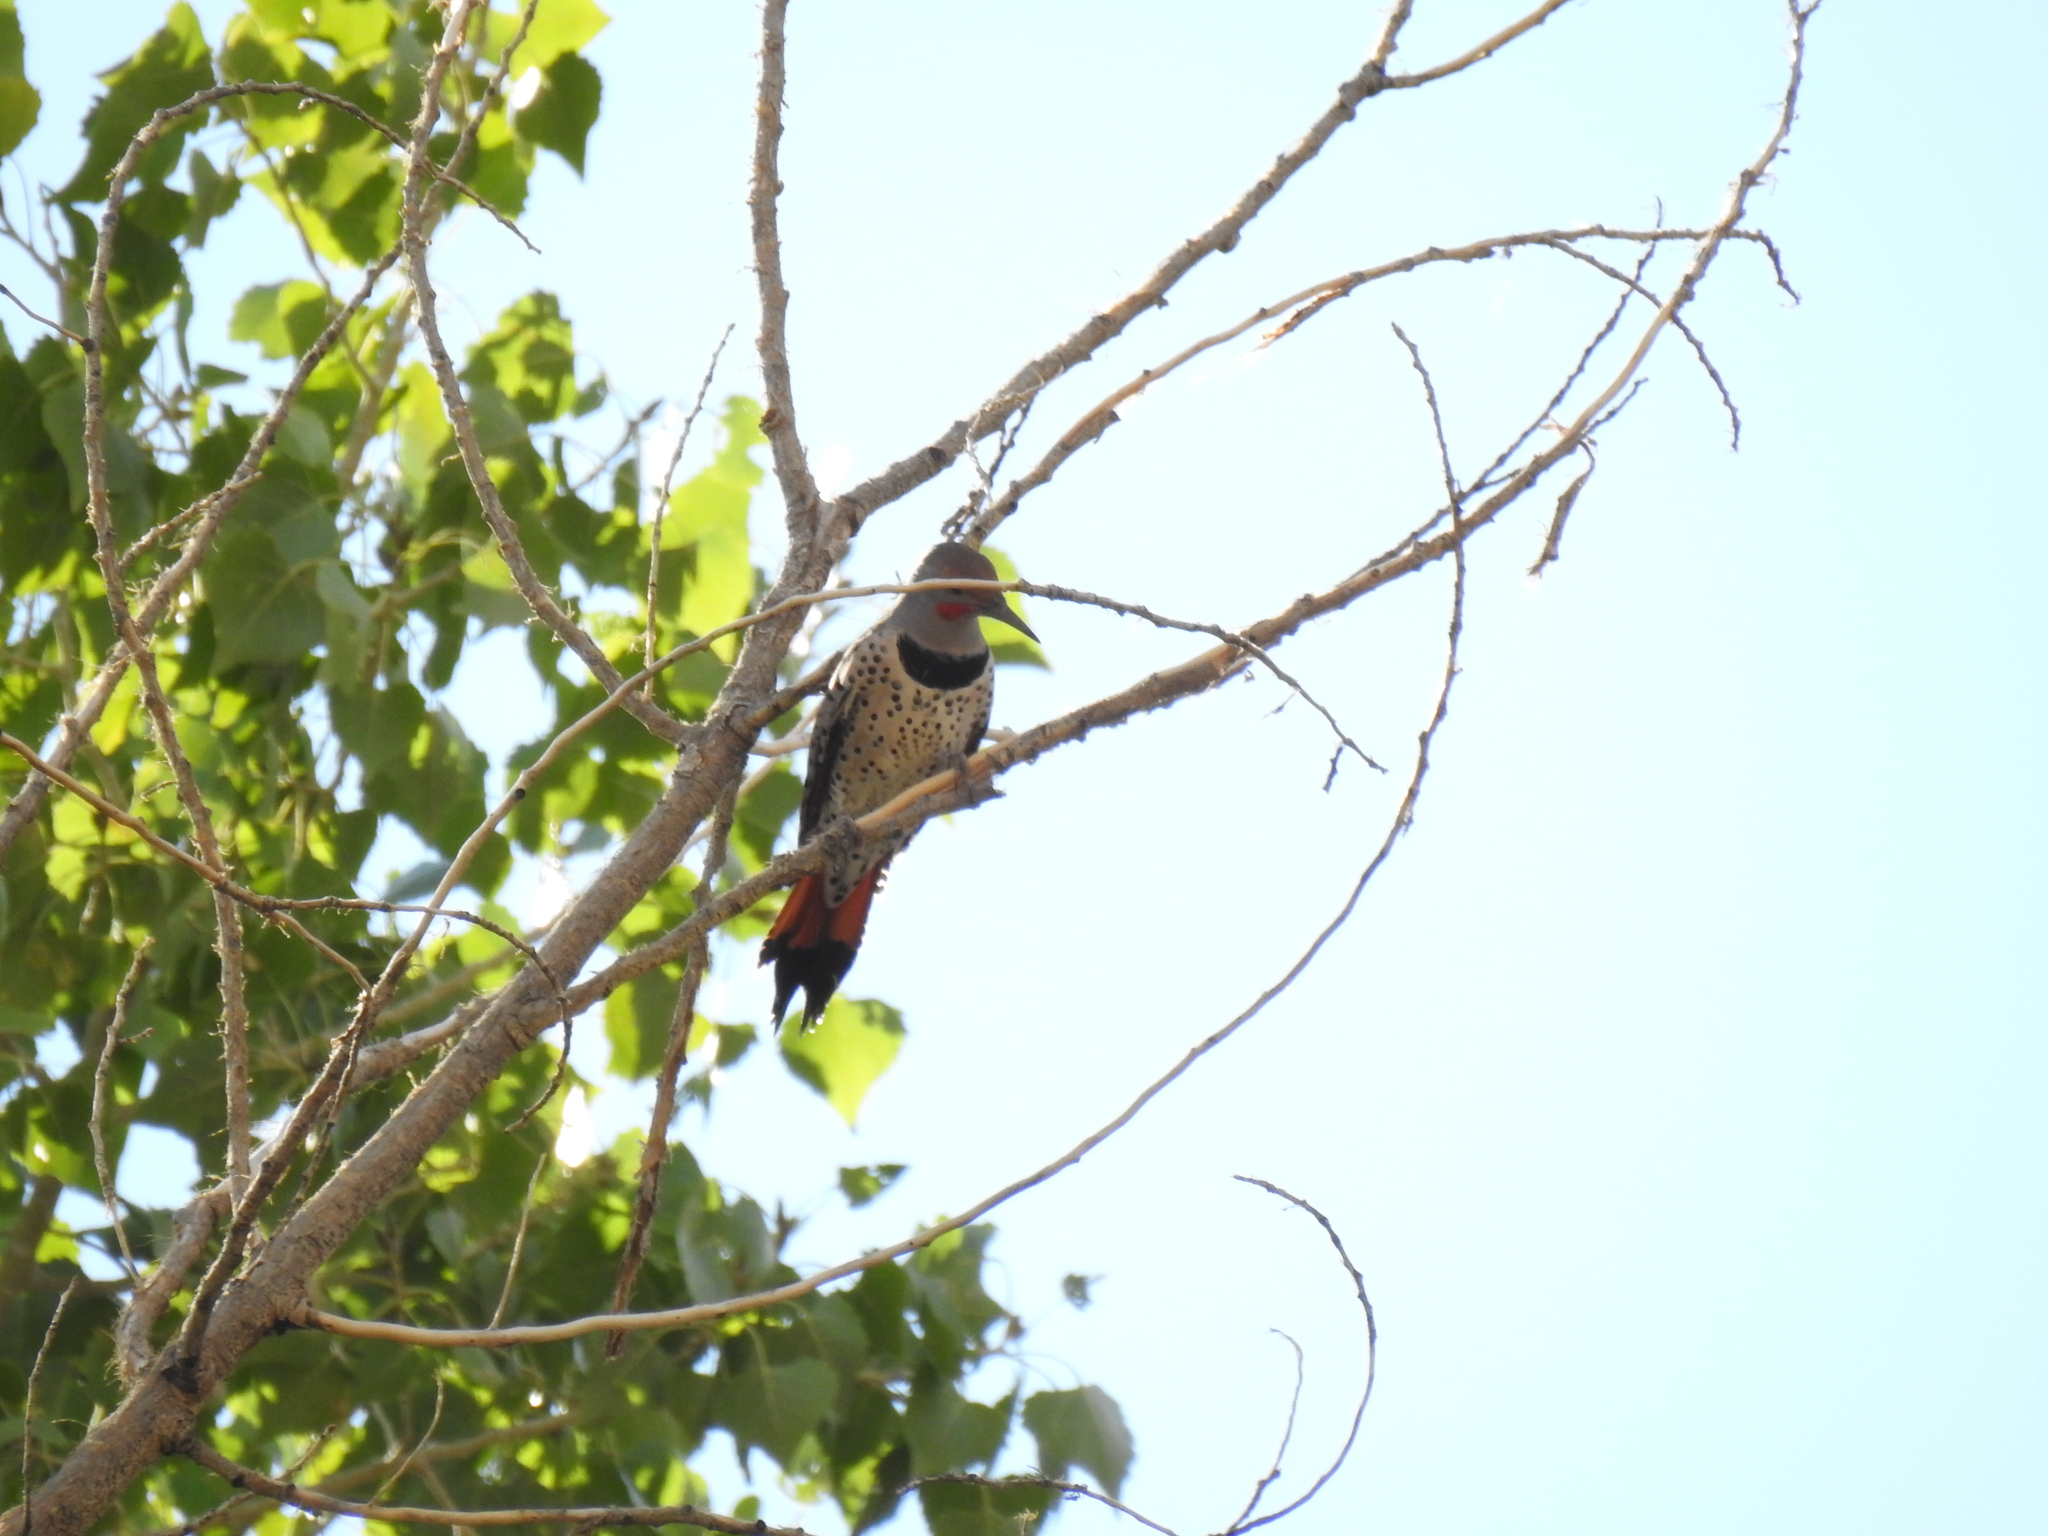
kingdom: Animalia
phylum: Chordata
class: Aves
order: Piciformes
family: Picidae
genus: Colaptes
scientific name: Colaptes auratus
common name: Northern flicker
